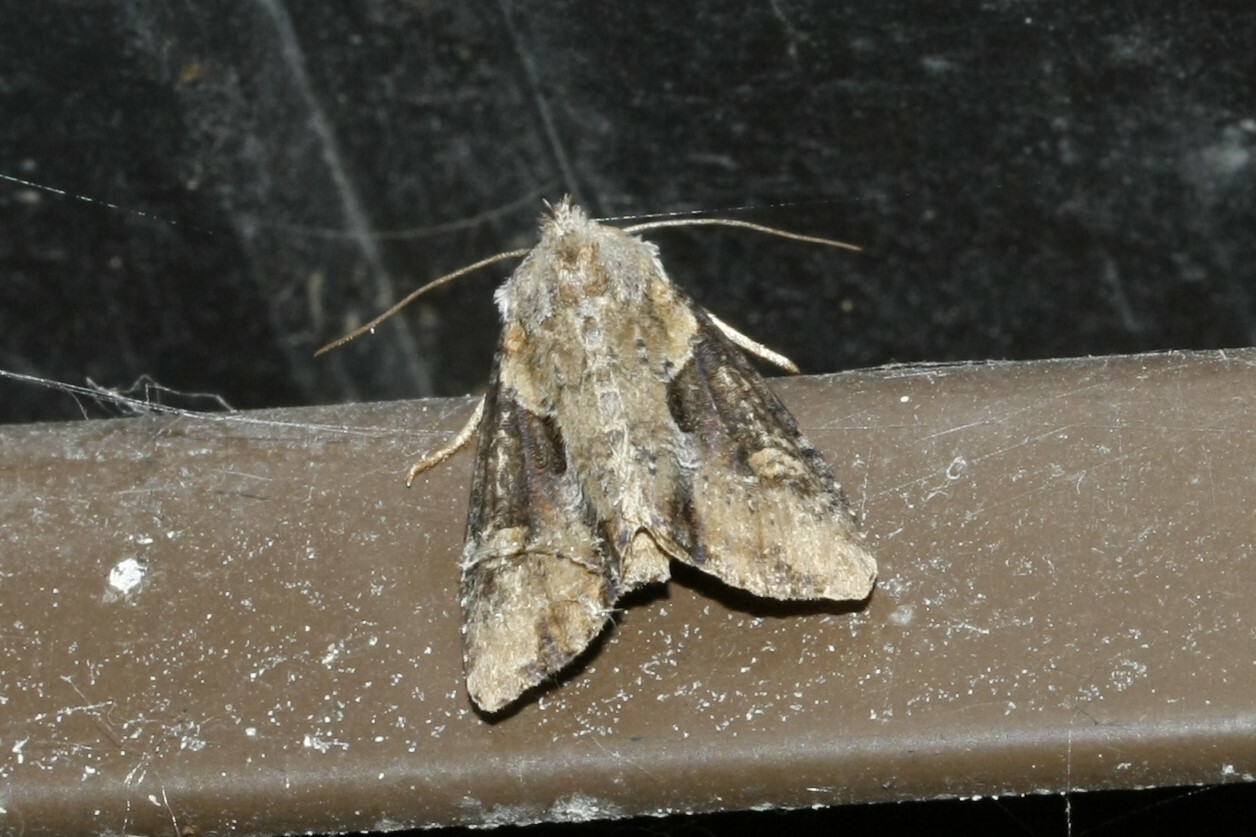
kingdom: Animalia
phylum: Arthropoda
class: Insecta
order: Lepidoptera
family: Noctuidae
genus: Lateroligia
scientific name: Lateroligia ophiogramma
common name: Double lobed
